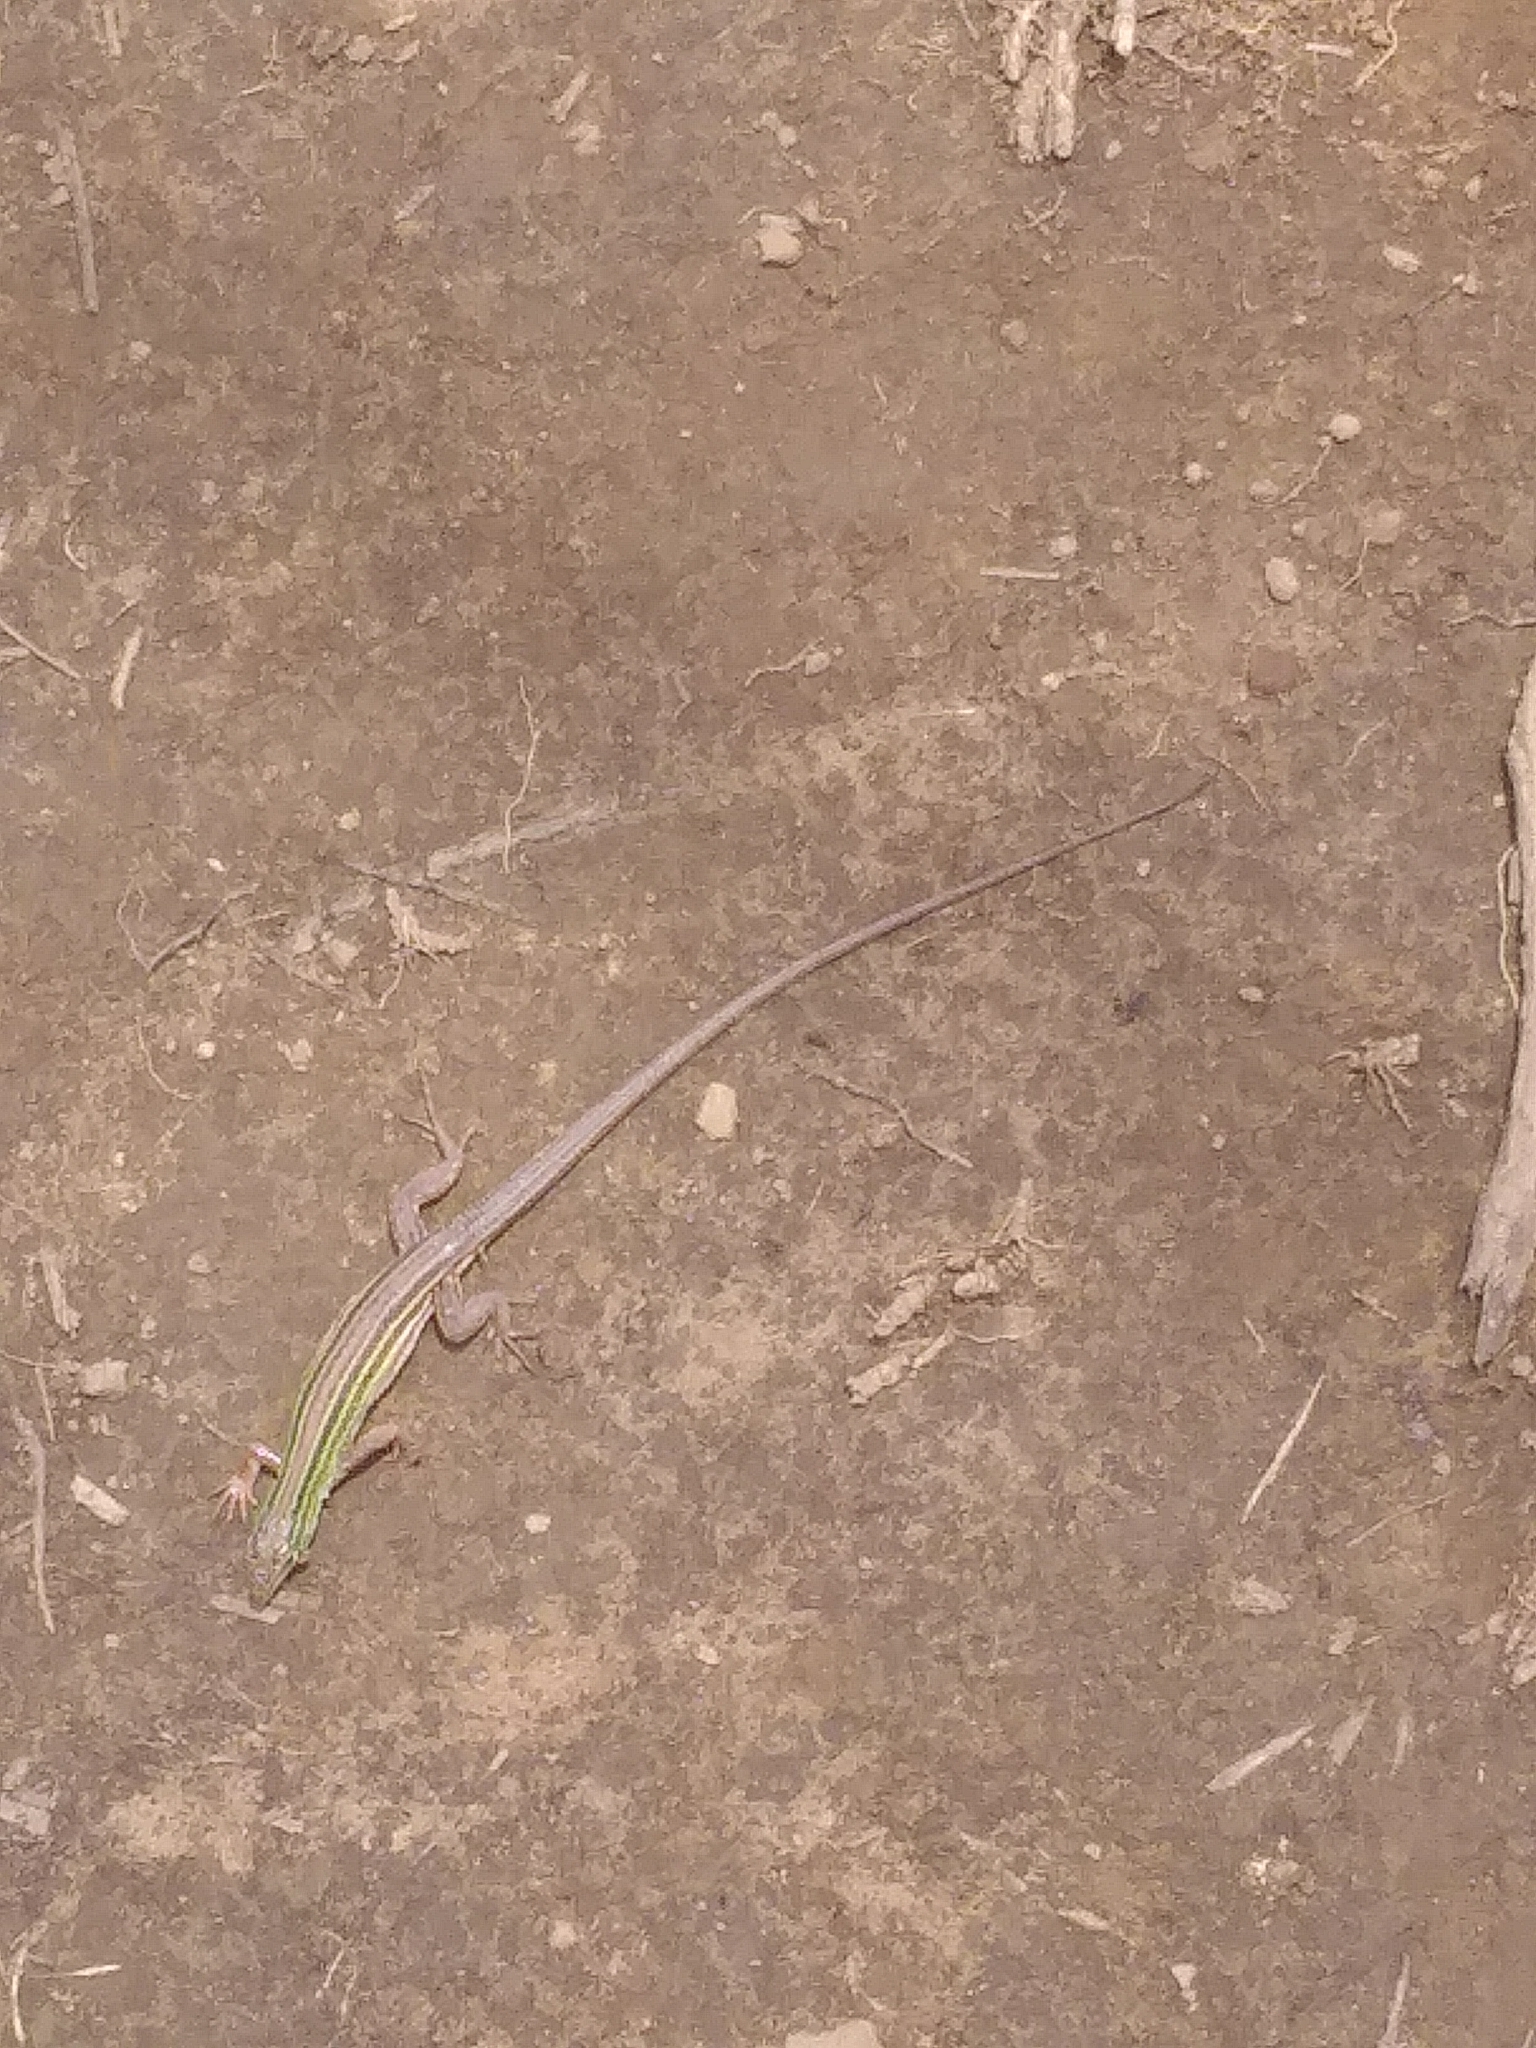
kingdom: Animalia
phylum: Chordata
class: Squamata
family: Teiidae
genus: Aspidoscelis
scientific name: Aspidoscelis sexlineatus
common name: Six-lined racerunner
